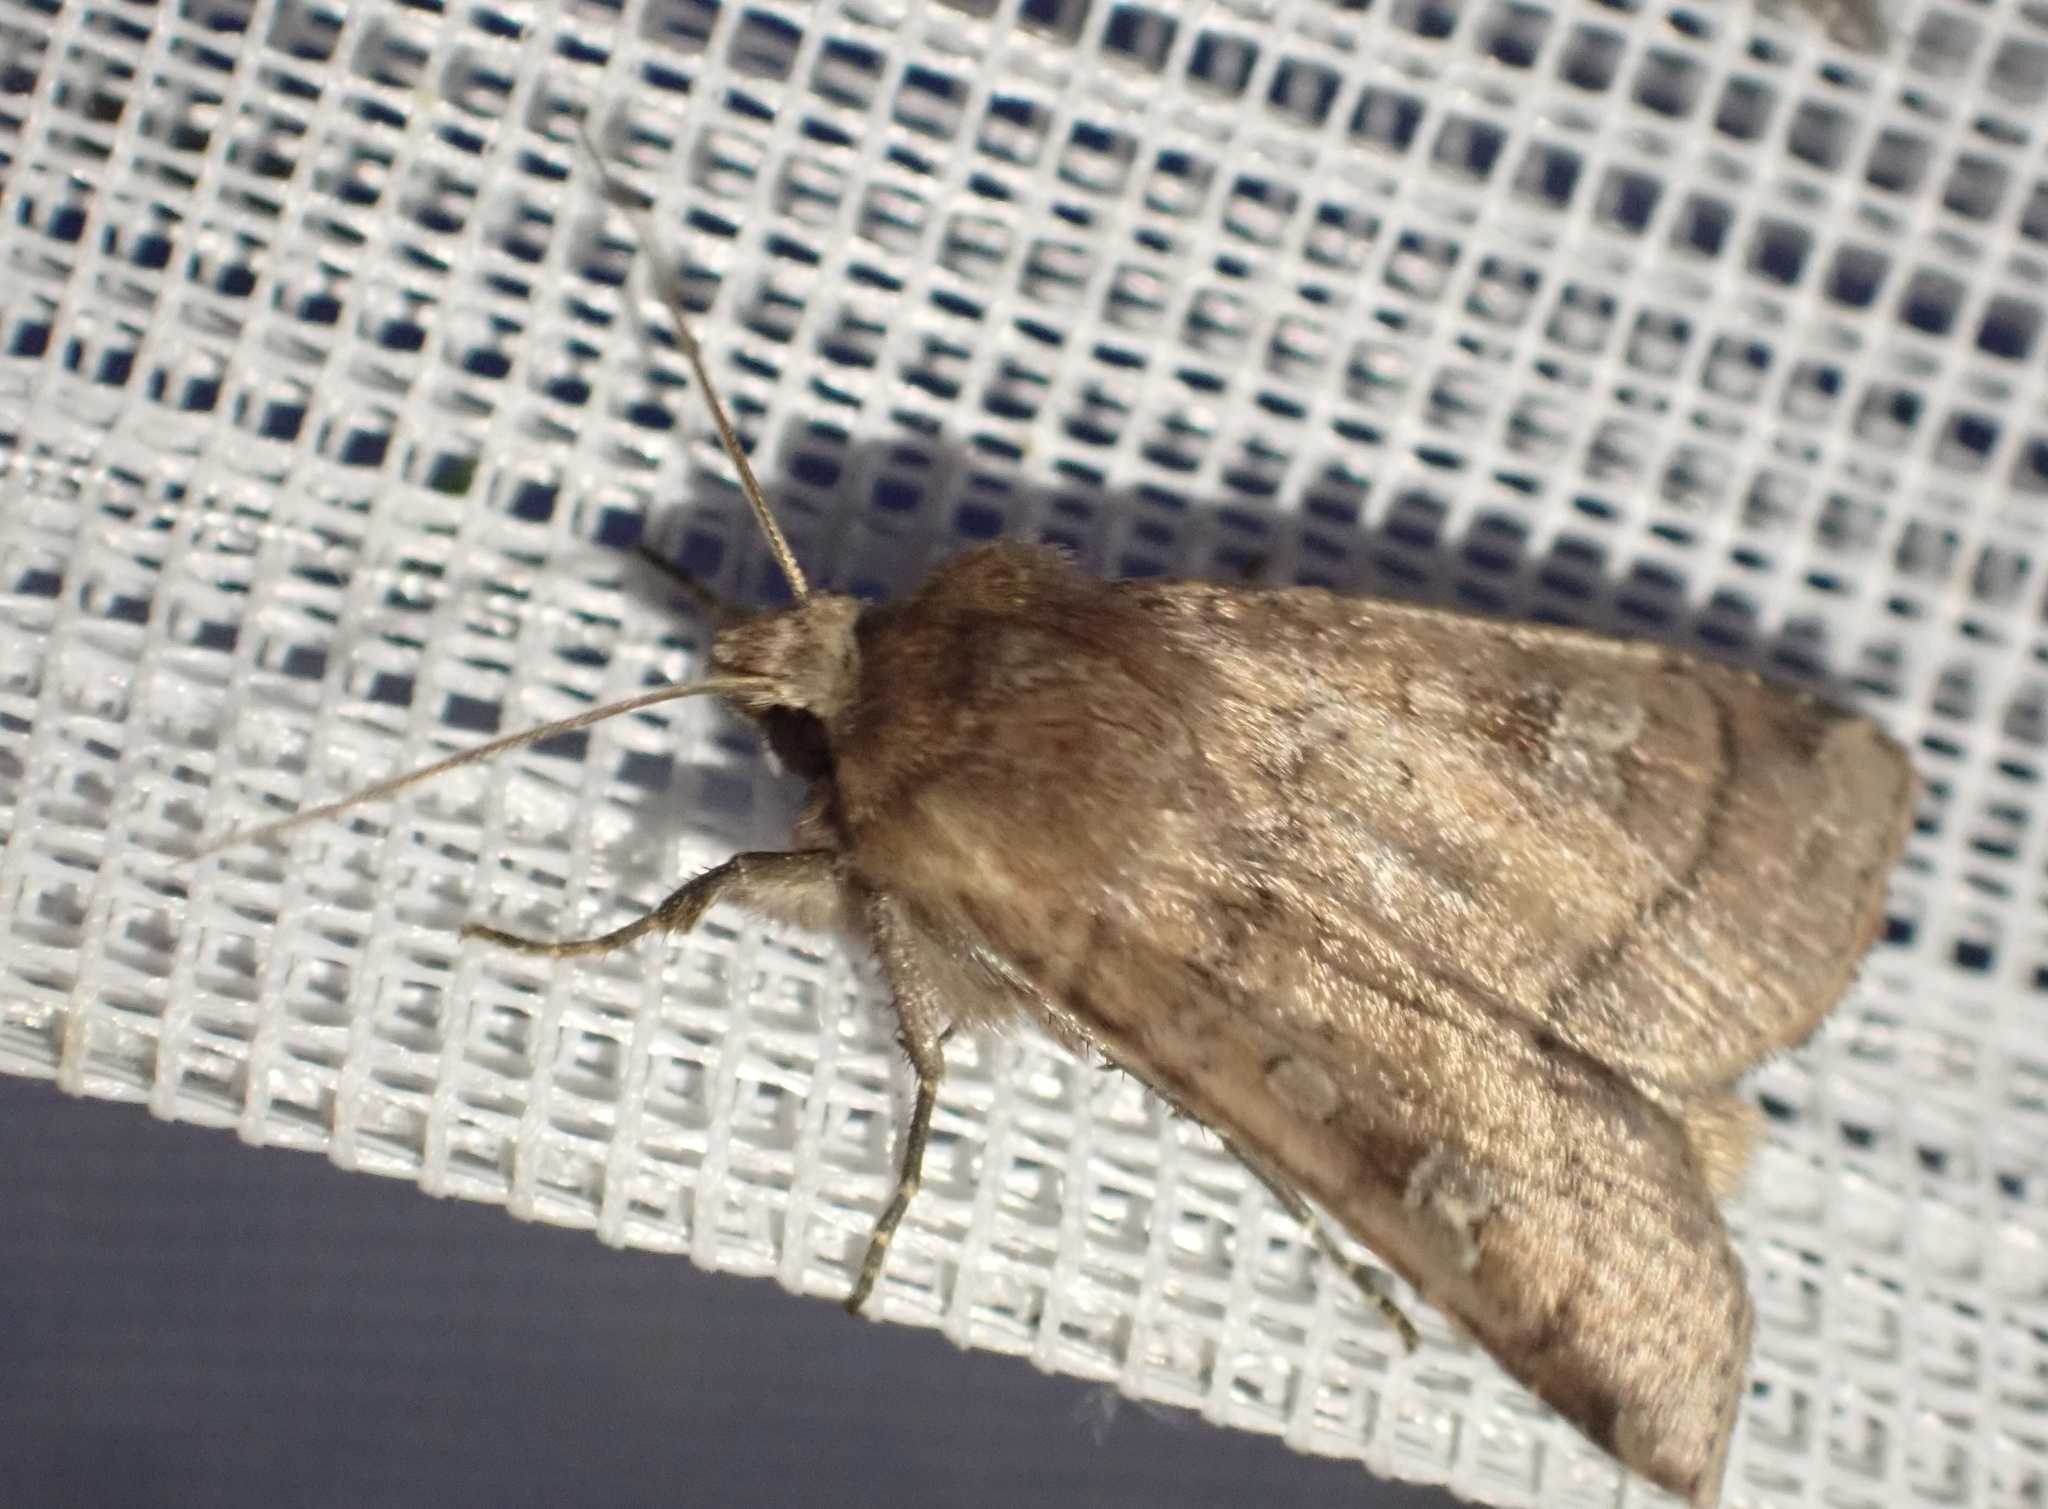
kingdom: Animalia
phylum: Arthropoda
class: Insecta
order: Lepidoptera
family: Noctuidae
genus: Diarsia
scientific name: Diarsia rubi
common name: Small square-spot
